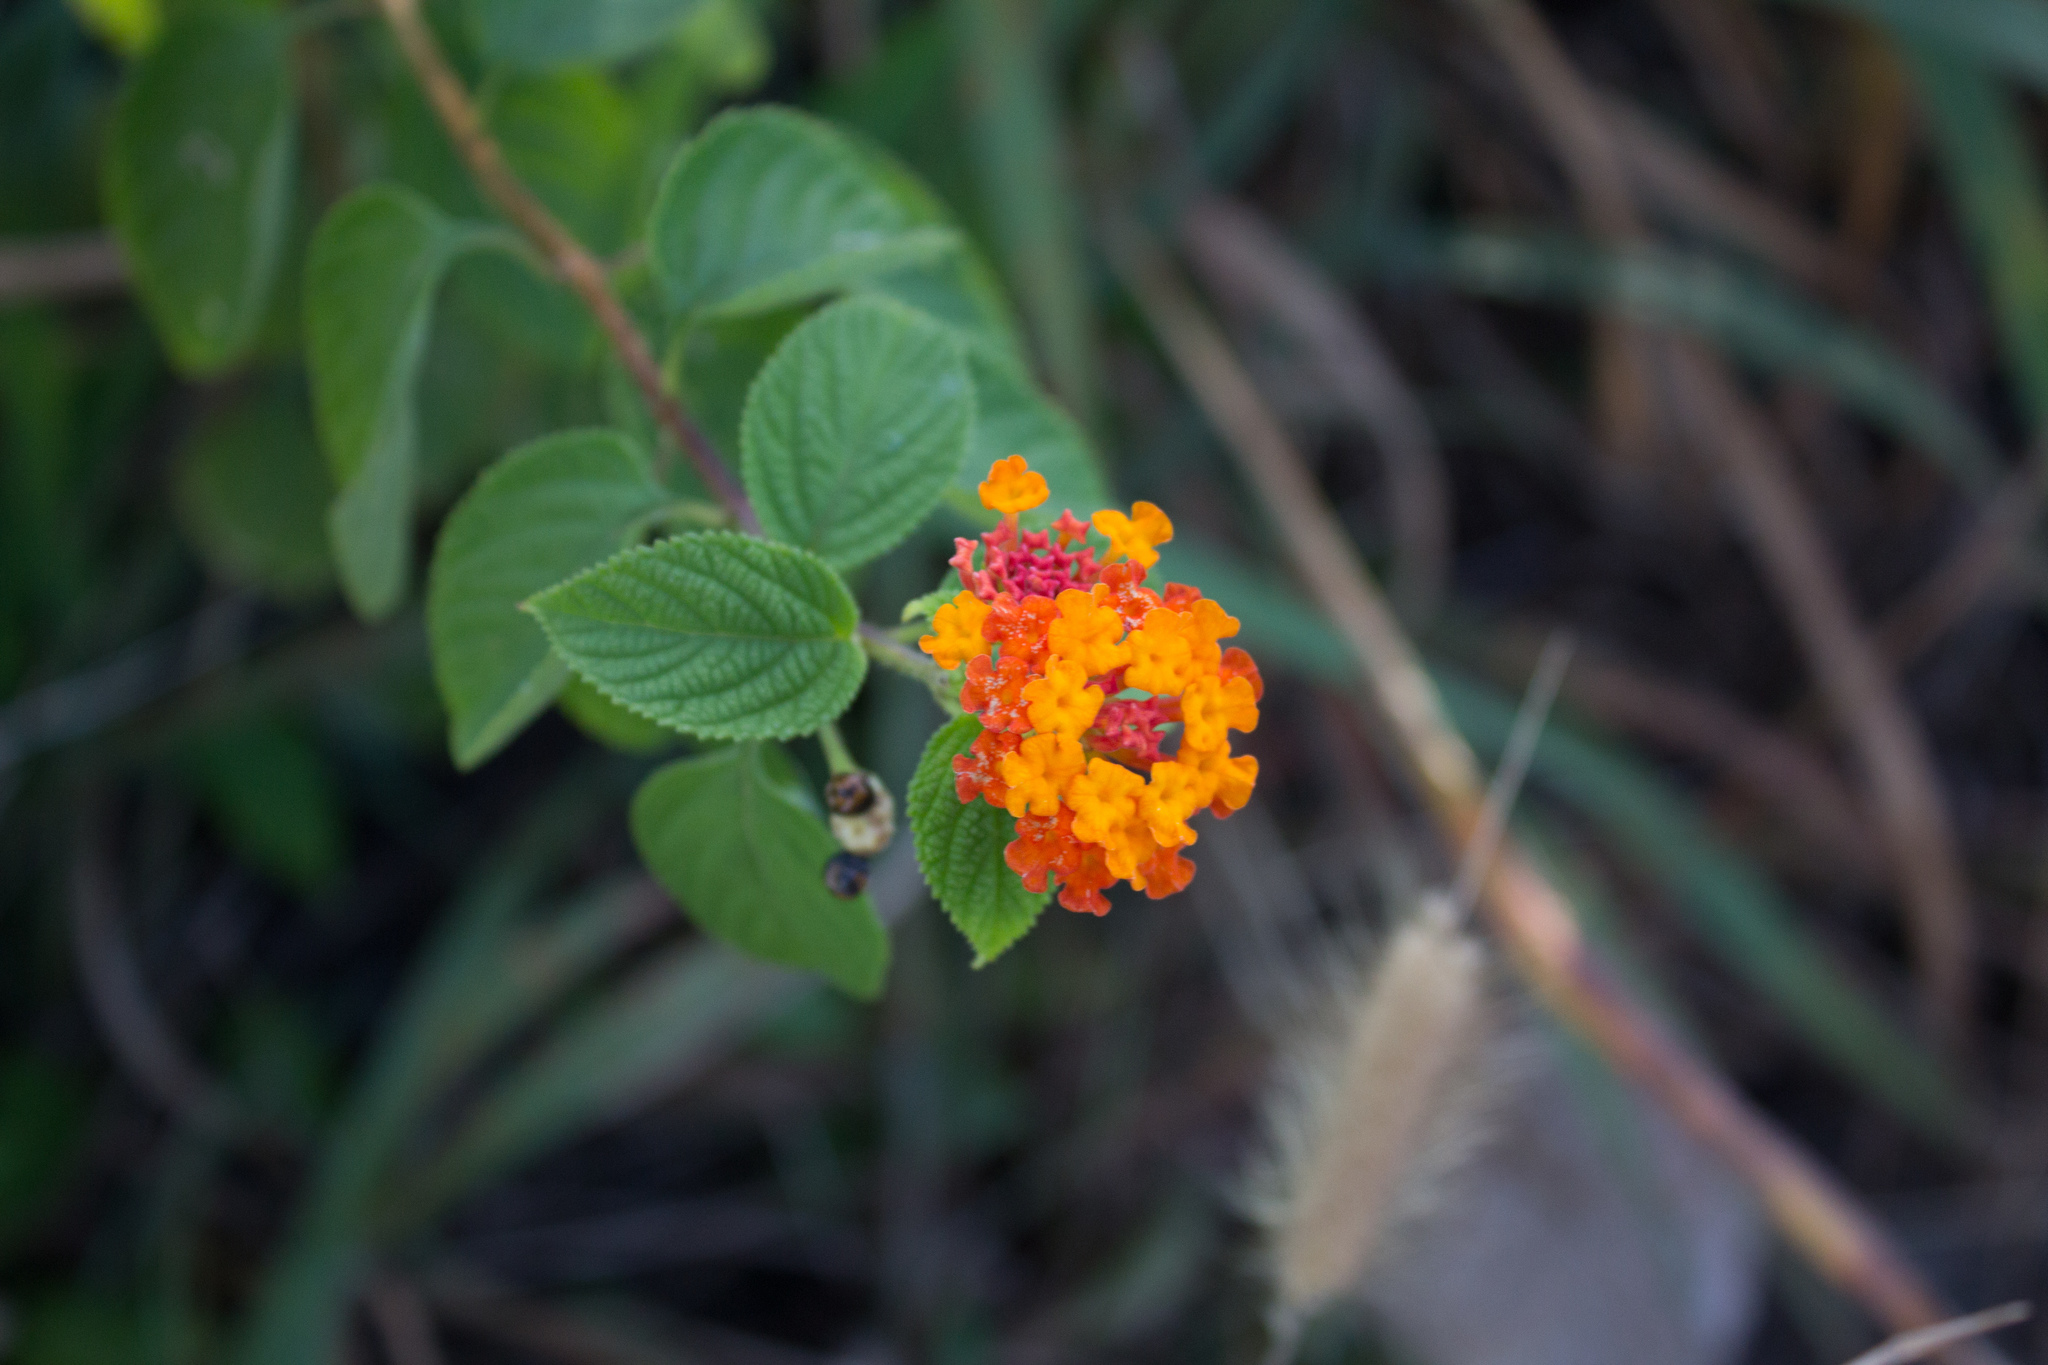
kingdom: Plantae
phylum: Tracheophyta
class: Magnoliopsida
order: Lamiales
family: Verbenaceae
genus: Lantana
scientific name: Lantana camara
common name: Lantana
